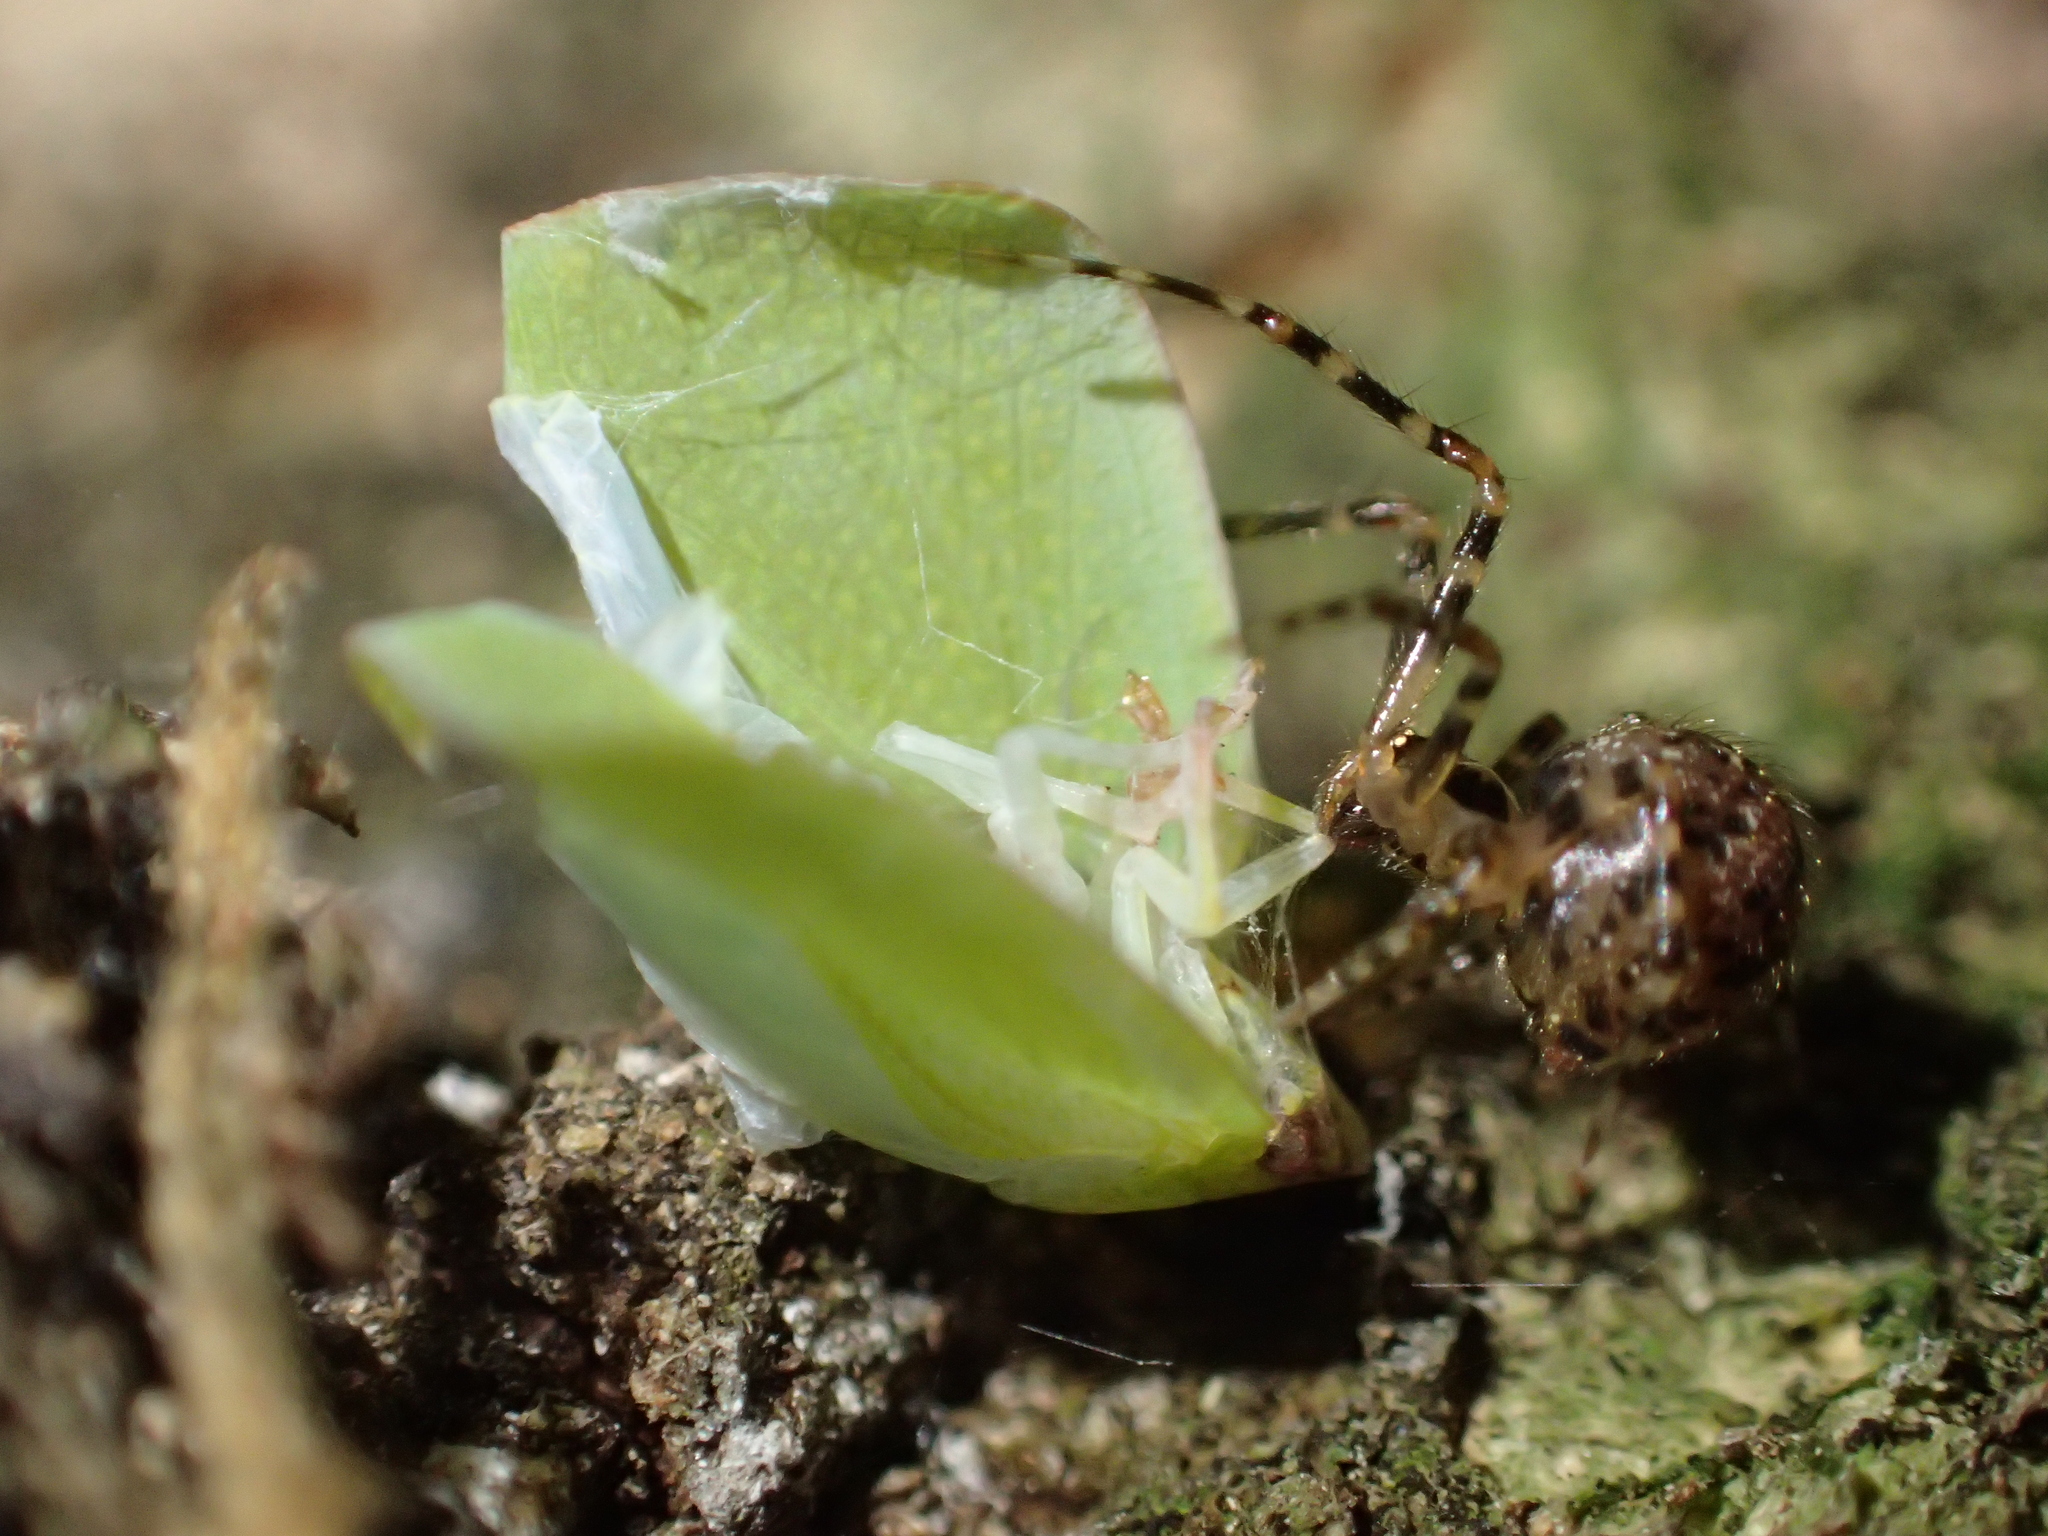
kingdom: Animalia
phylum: Arthropoda
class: Insecta
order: Hemiptera
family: Flatidae
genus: Siphanta
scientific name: Siphanta acuta
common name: Torpedo bug
